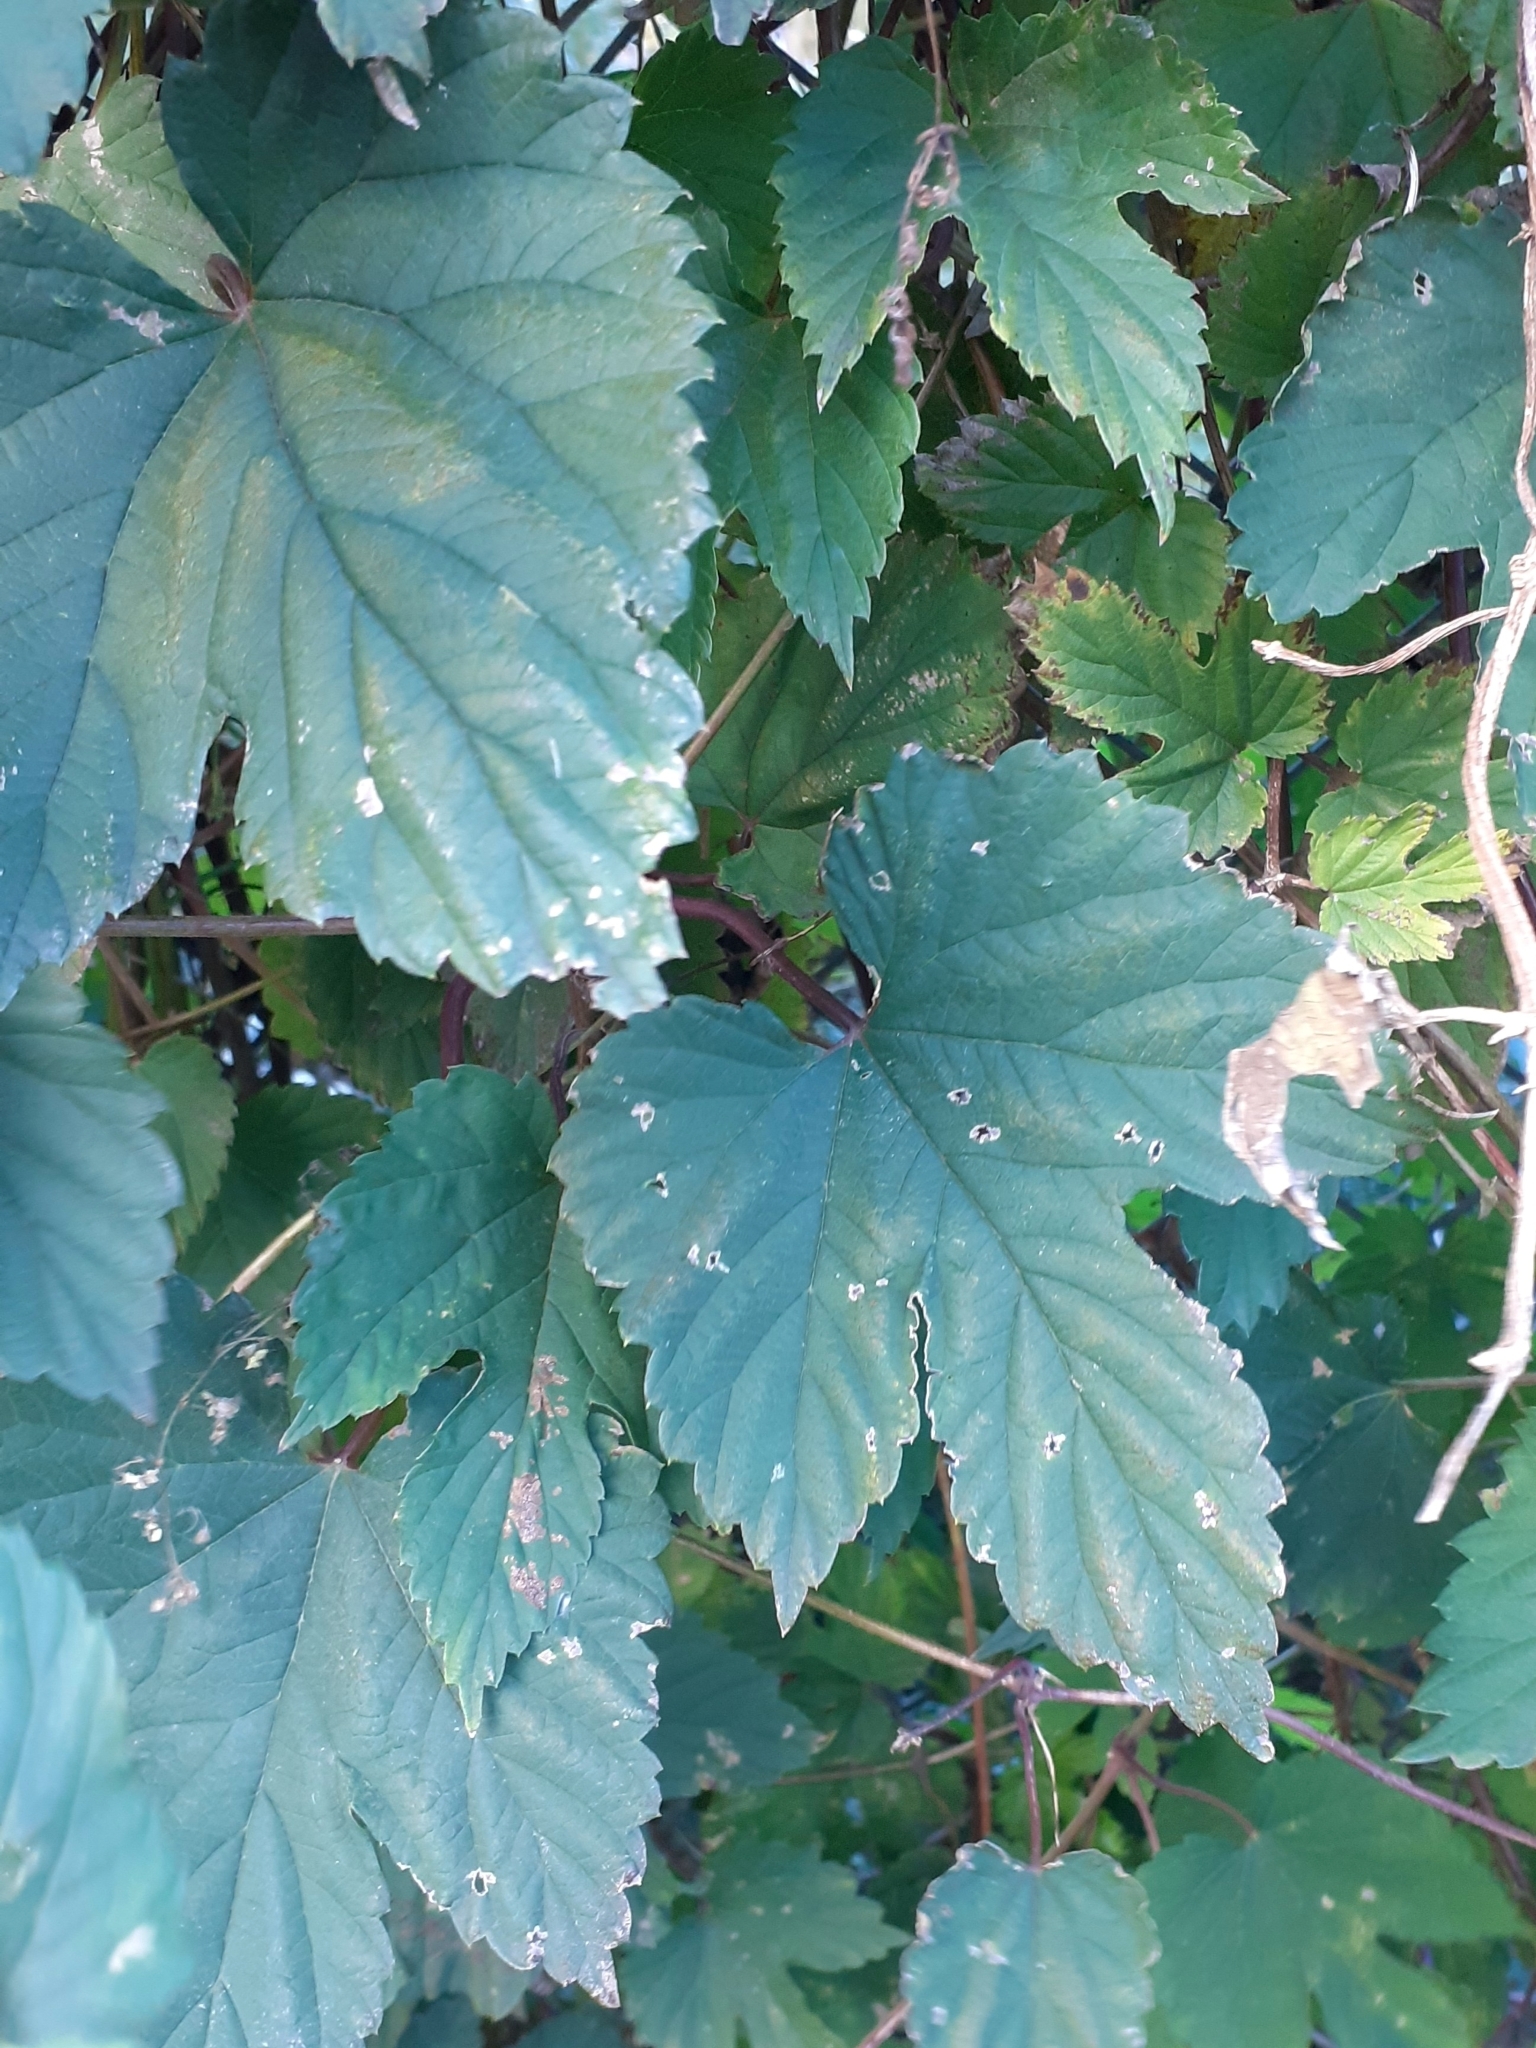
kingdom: Plantae
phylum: Tracheophyta
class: Magnoliopsida
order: Rosales
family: Cannabaceae
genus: Humulus
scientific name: Humulus lupulus
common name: Hop
